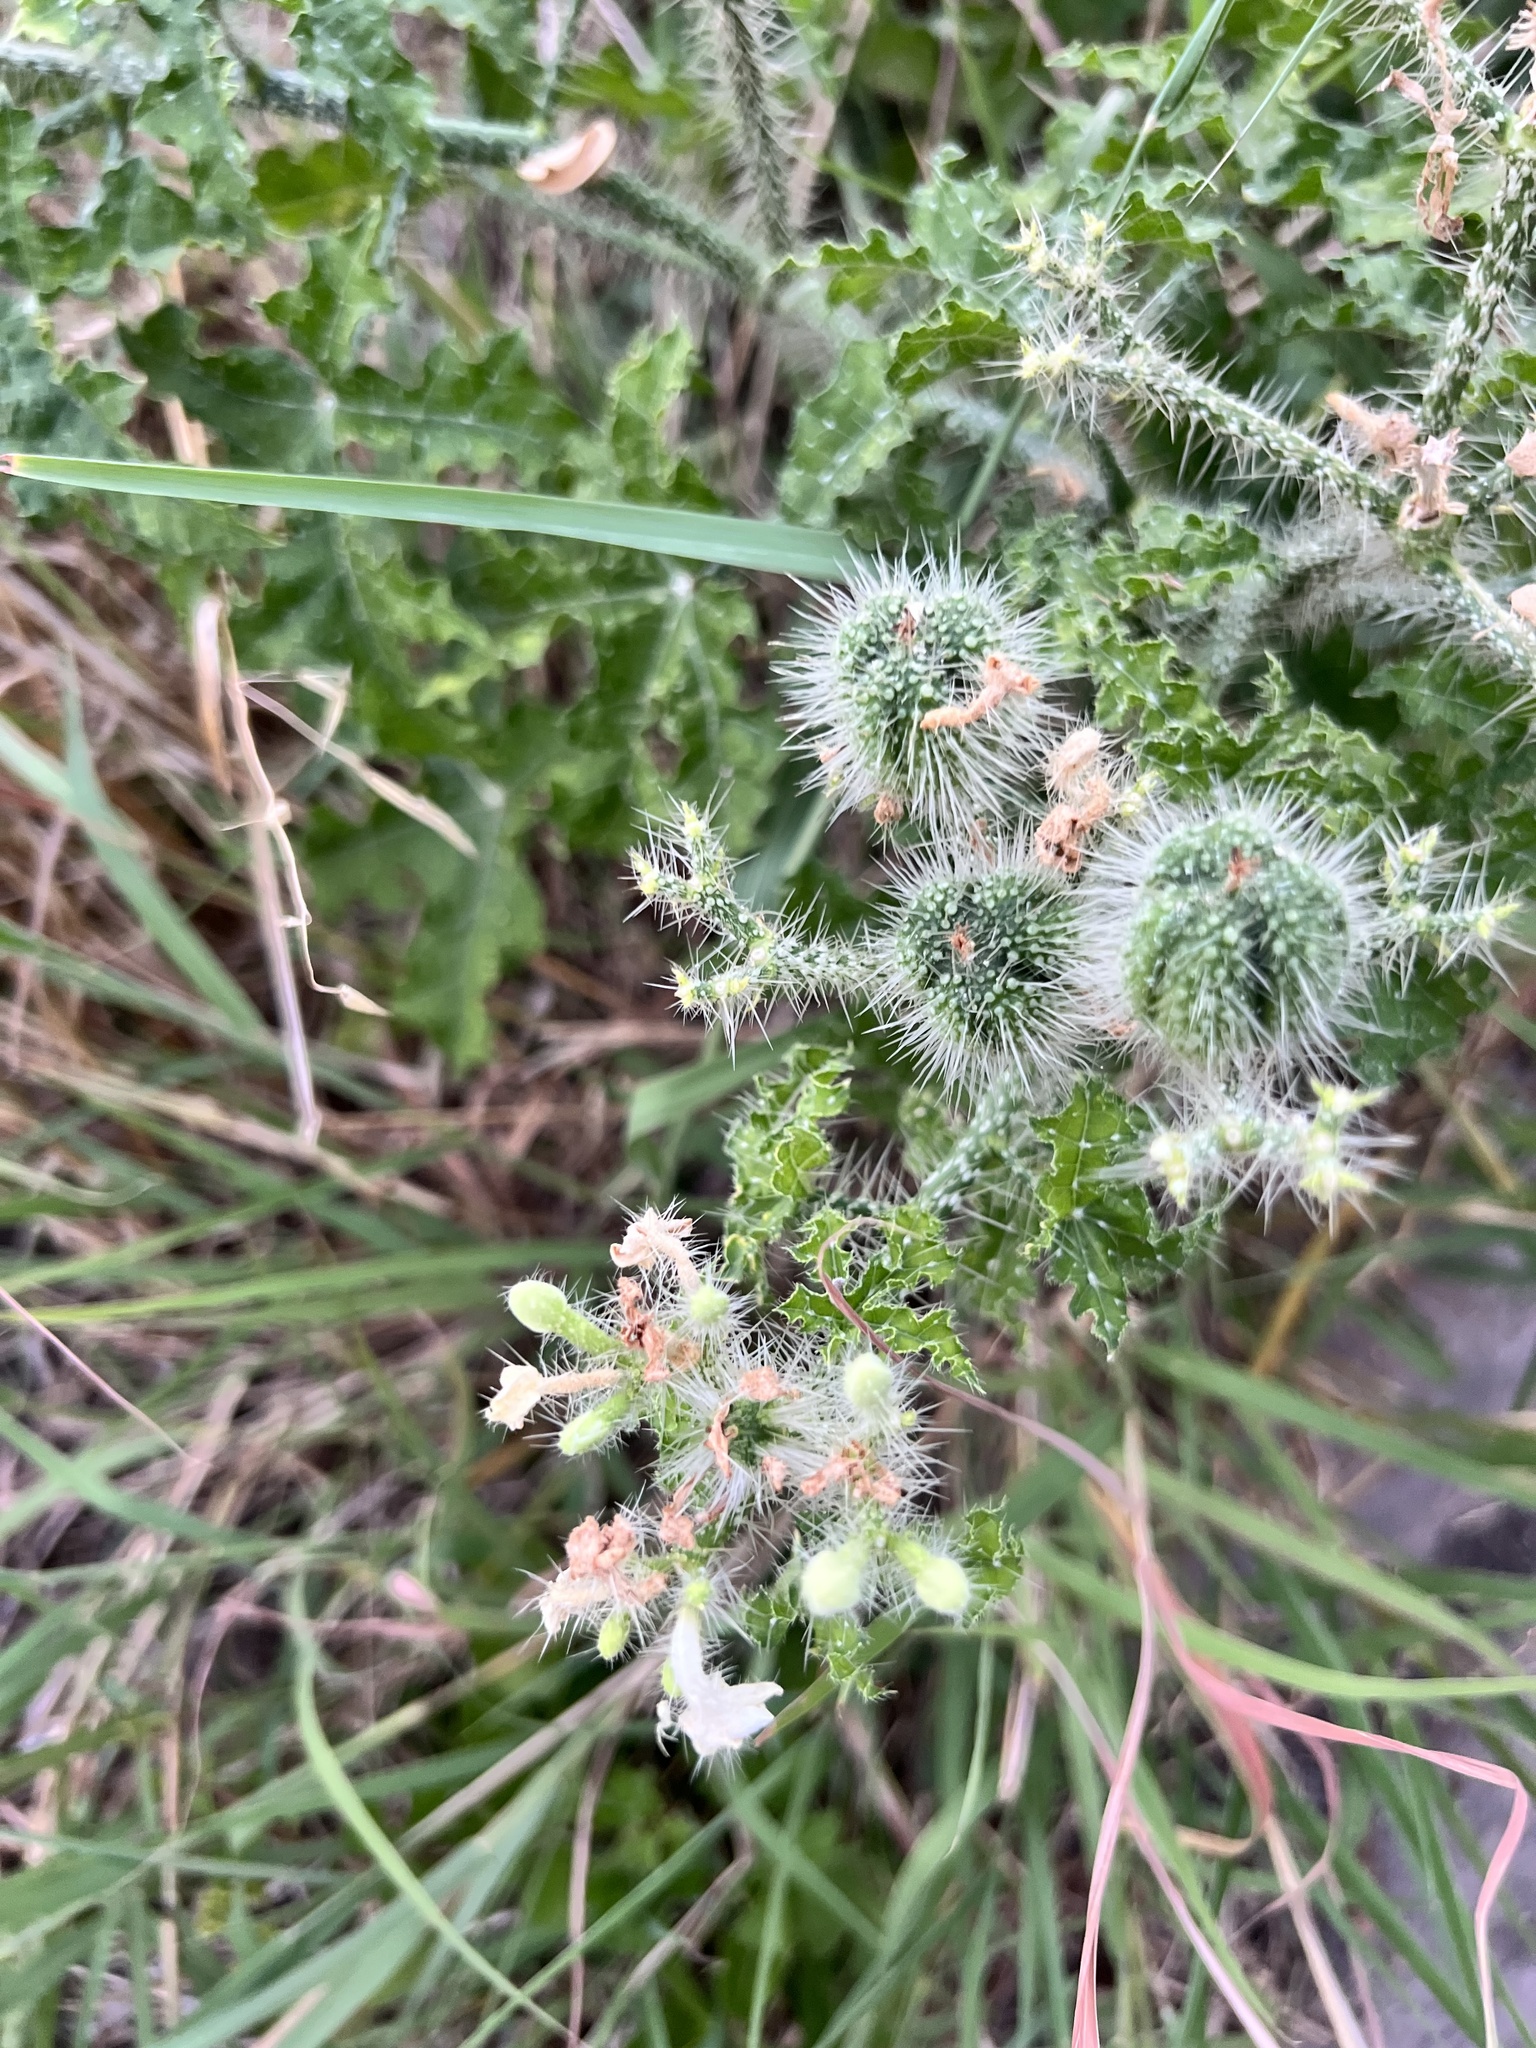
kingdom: Plantae
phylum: Tracheophyta
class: Magnoliopsida
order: Malpighiales
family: Euphorbiaceae
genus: Cnidoscolus
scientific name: Cnidoscolus texanus
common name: Texas bull-nettle
